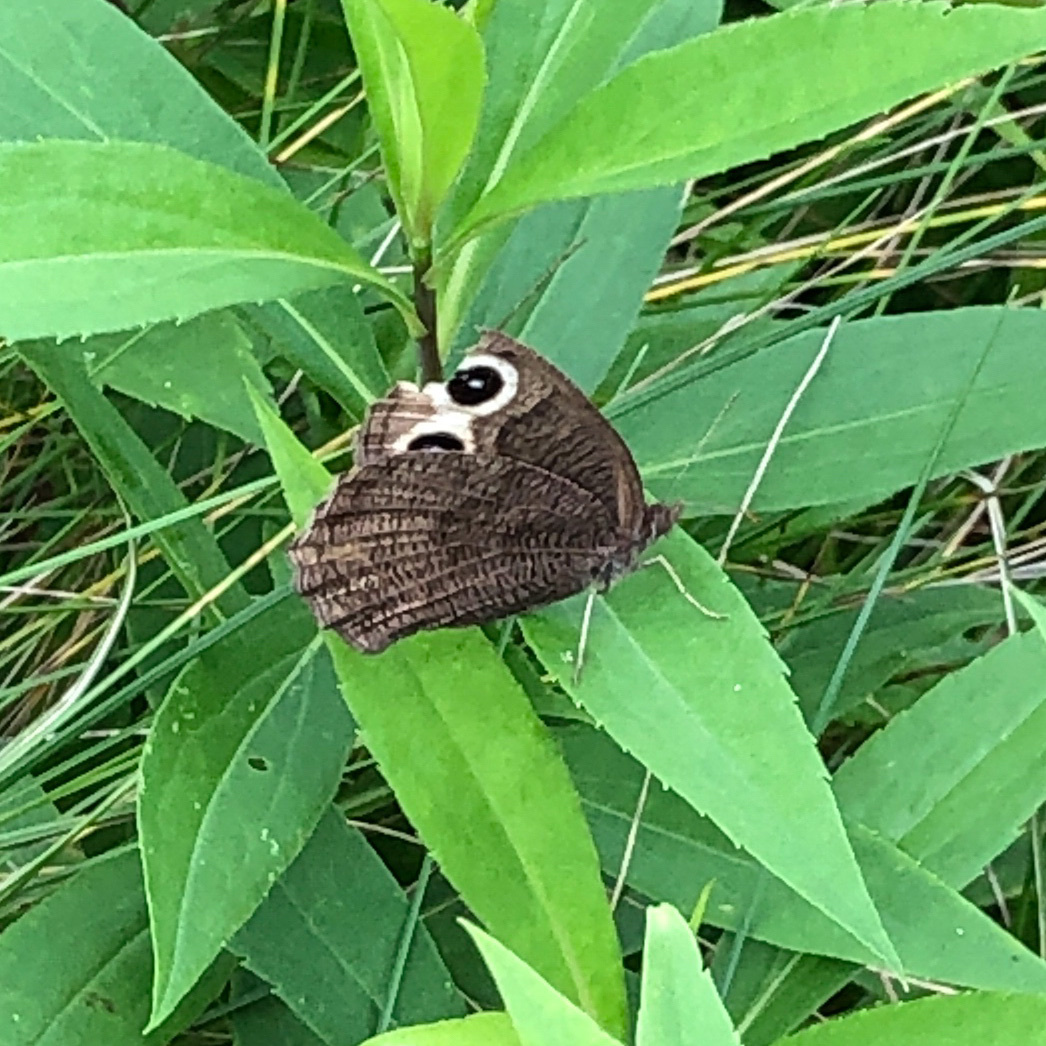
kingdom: Animalia
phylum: Arthropoda
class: Insecta
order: Lepidoptera
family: Nymphalidae
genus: Cercyonis
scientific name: Cercyonis pegala
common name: Common wood-nymph
